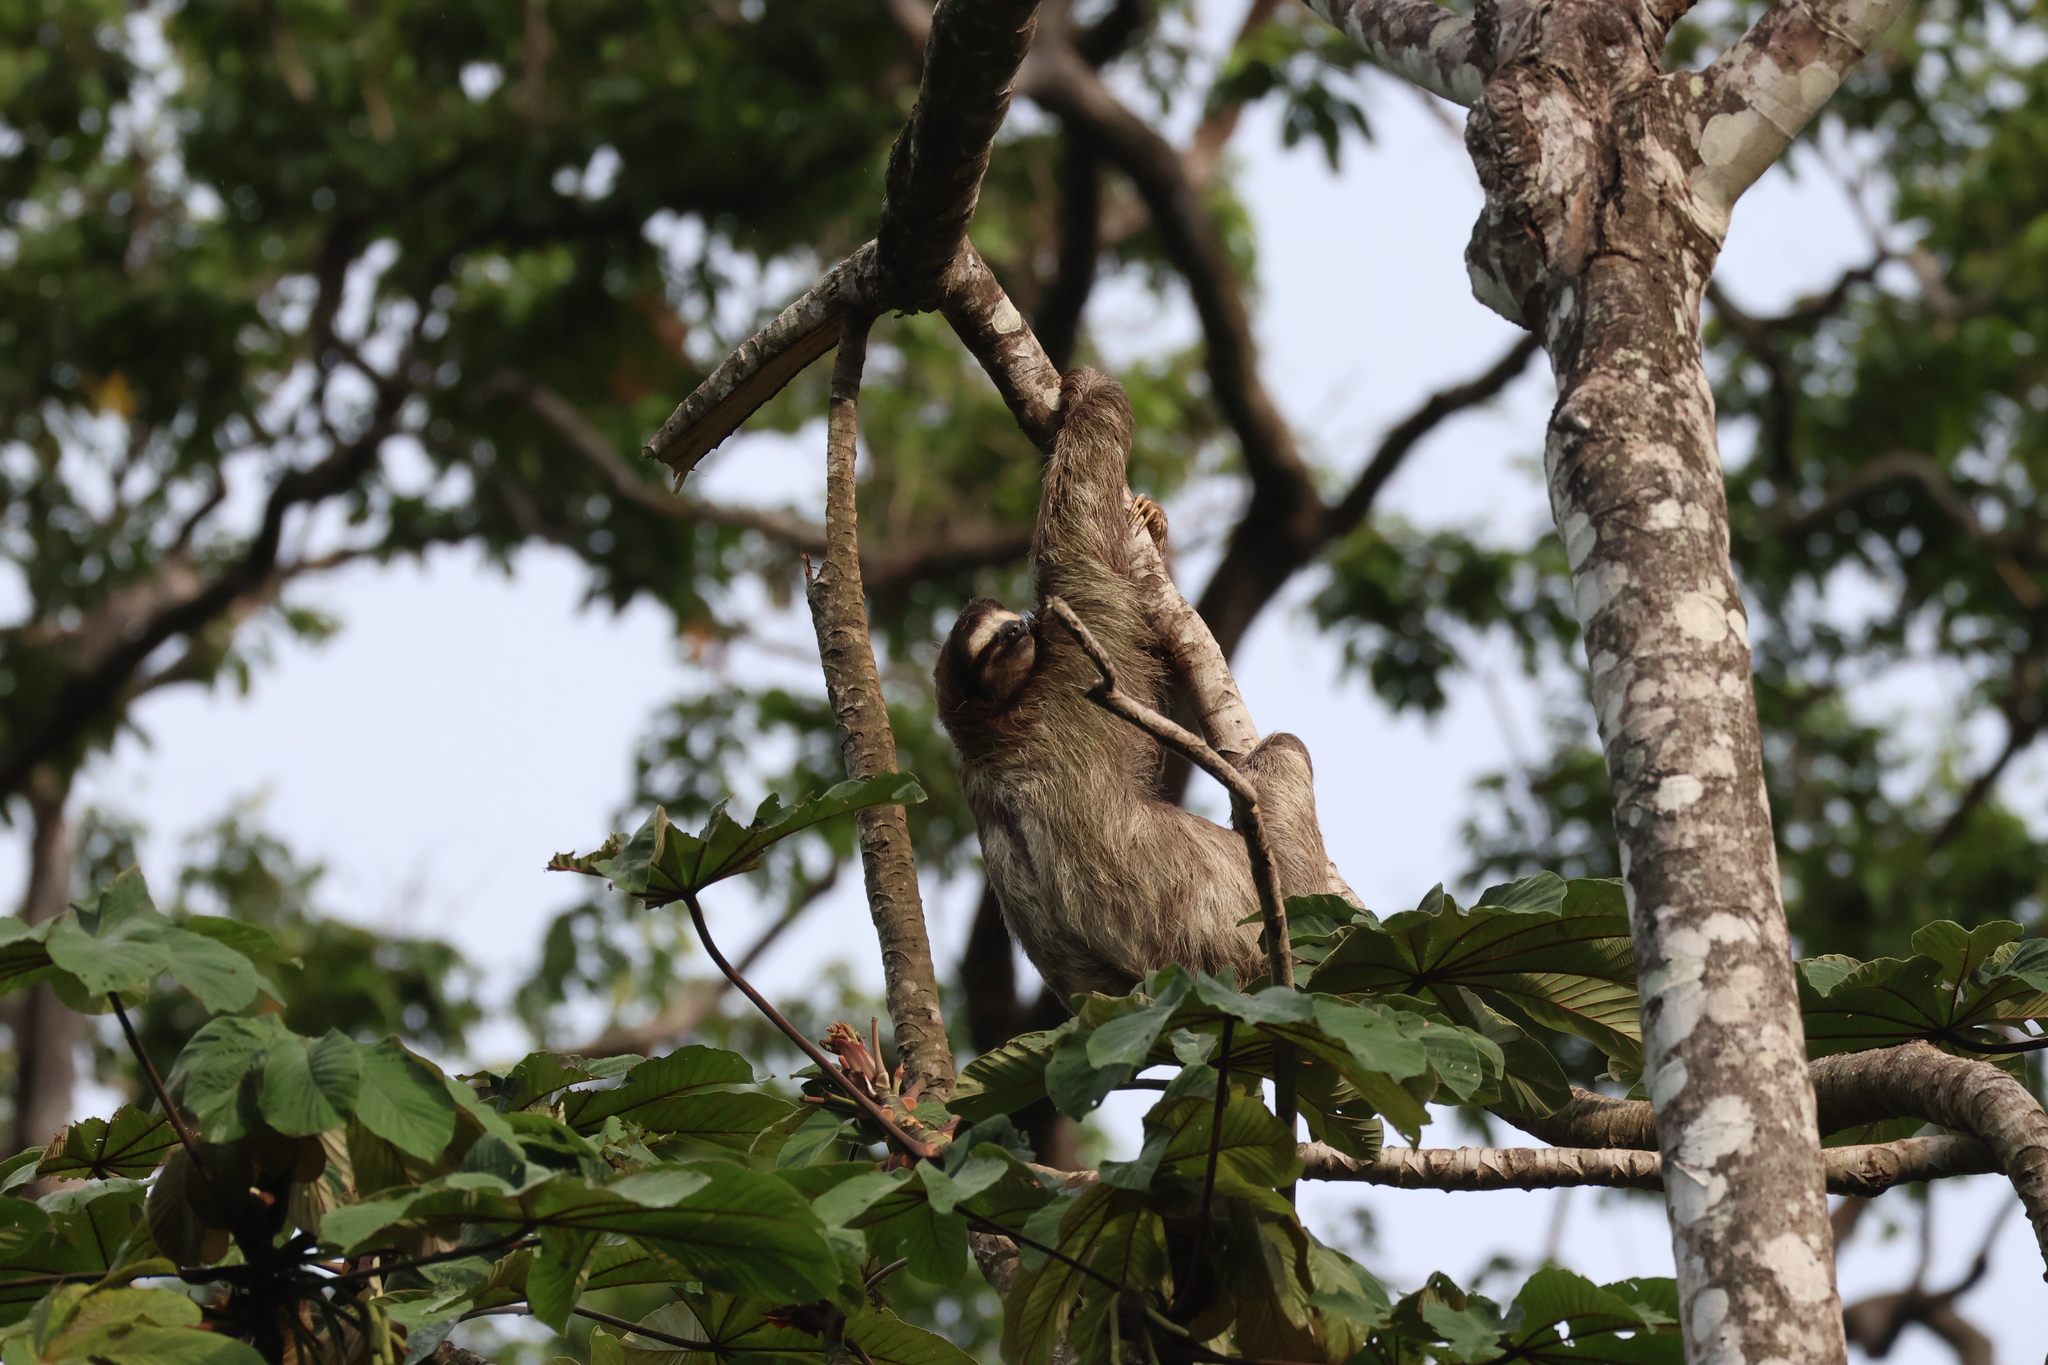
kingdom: Animalia
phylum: Chordata
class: Mammalia
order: Pilosa
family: Bradypodidae
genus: Bradypus
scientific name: Bradypus variegatus
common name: Brown-throated three-toed sloth
